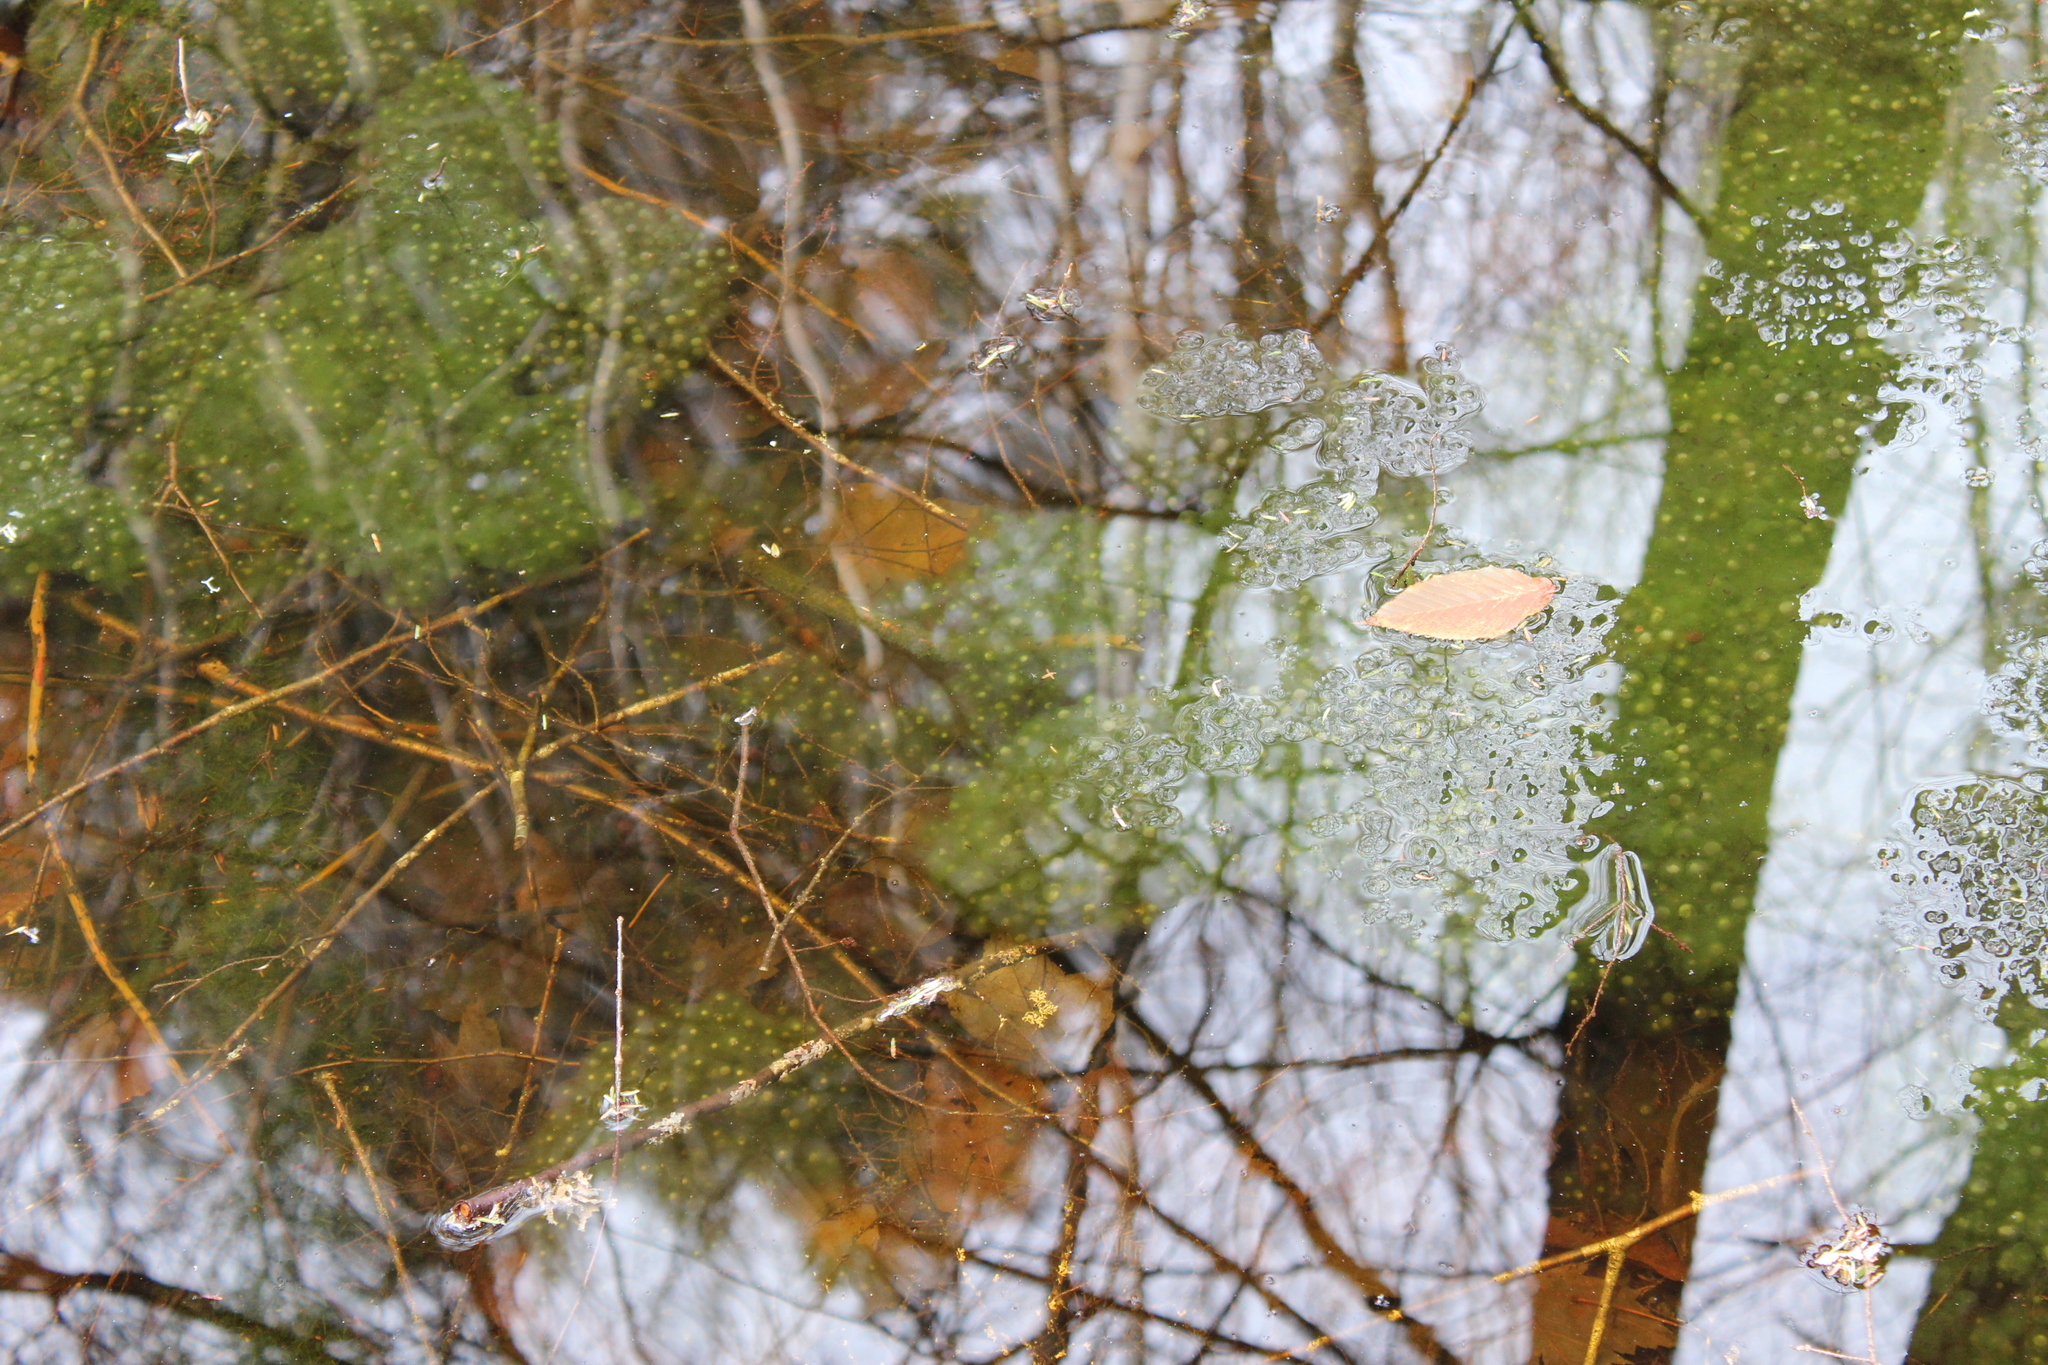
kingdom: Animalia
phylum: Chordata
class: Amphibia
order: Anura
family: Ranidae
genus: Lithobates
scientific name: Lithobates sylvaticus
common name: Wood frog
